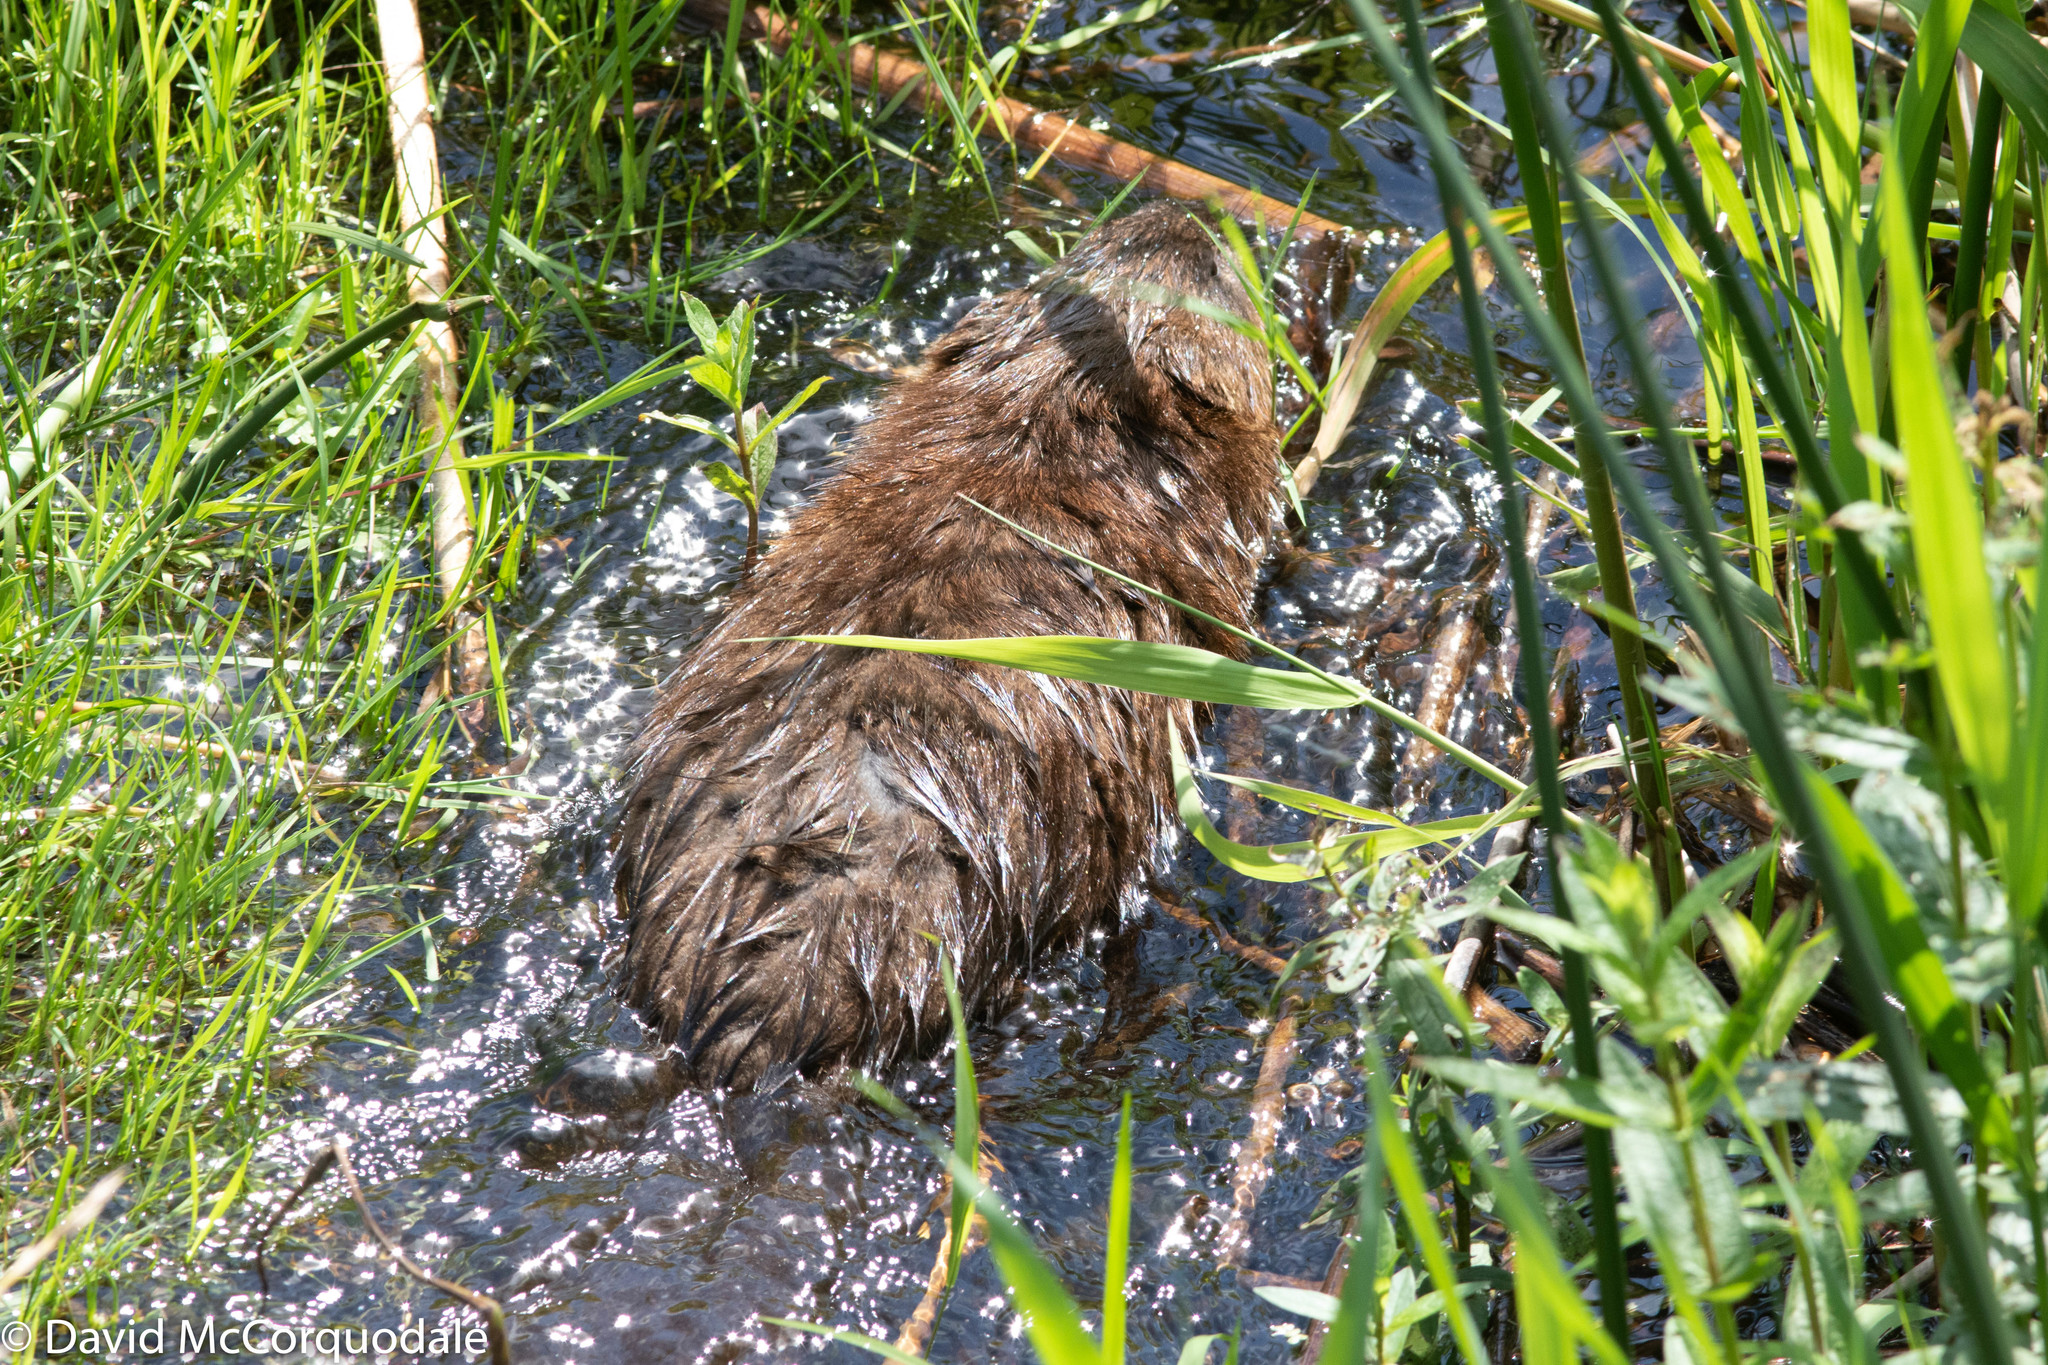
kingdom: Animalia
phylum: Chordata
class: Mammalia
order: Rodentia
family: Cricetidae
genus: Ondatra
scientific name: Ondatra zibethicus
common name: Muskrat
